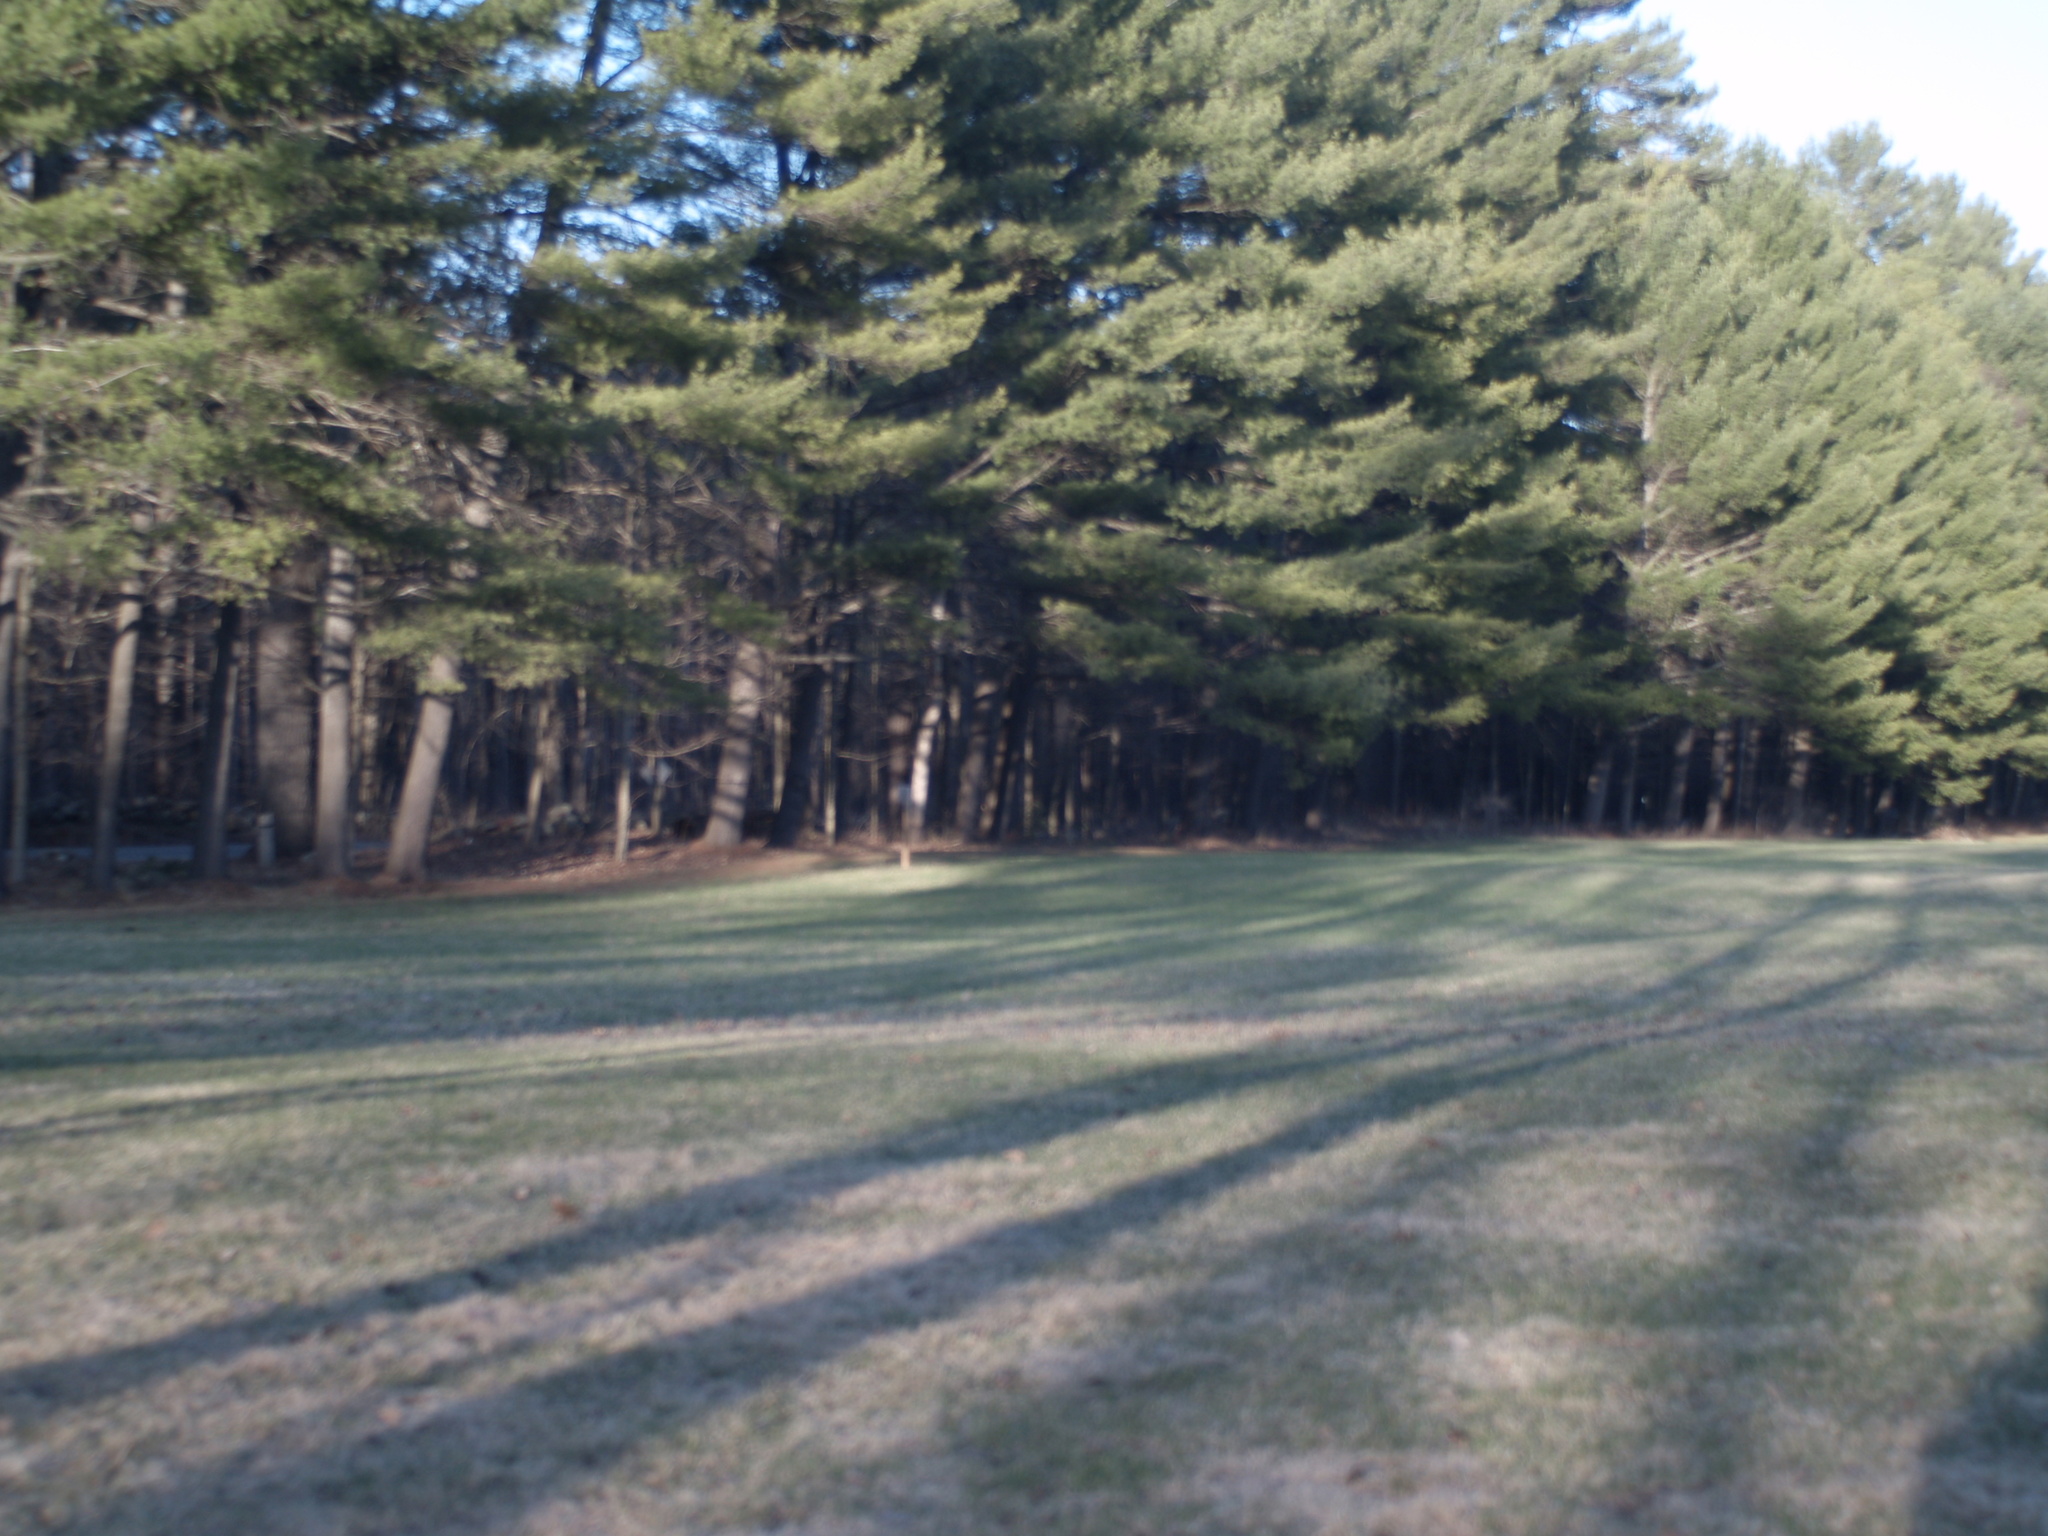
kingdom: Plantae
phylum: Tracheophyta
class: Pinopsida
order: Pinales
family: Pinaceae
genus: Pinus
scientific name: Pinus strobus
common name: Weymouth pine
